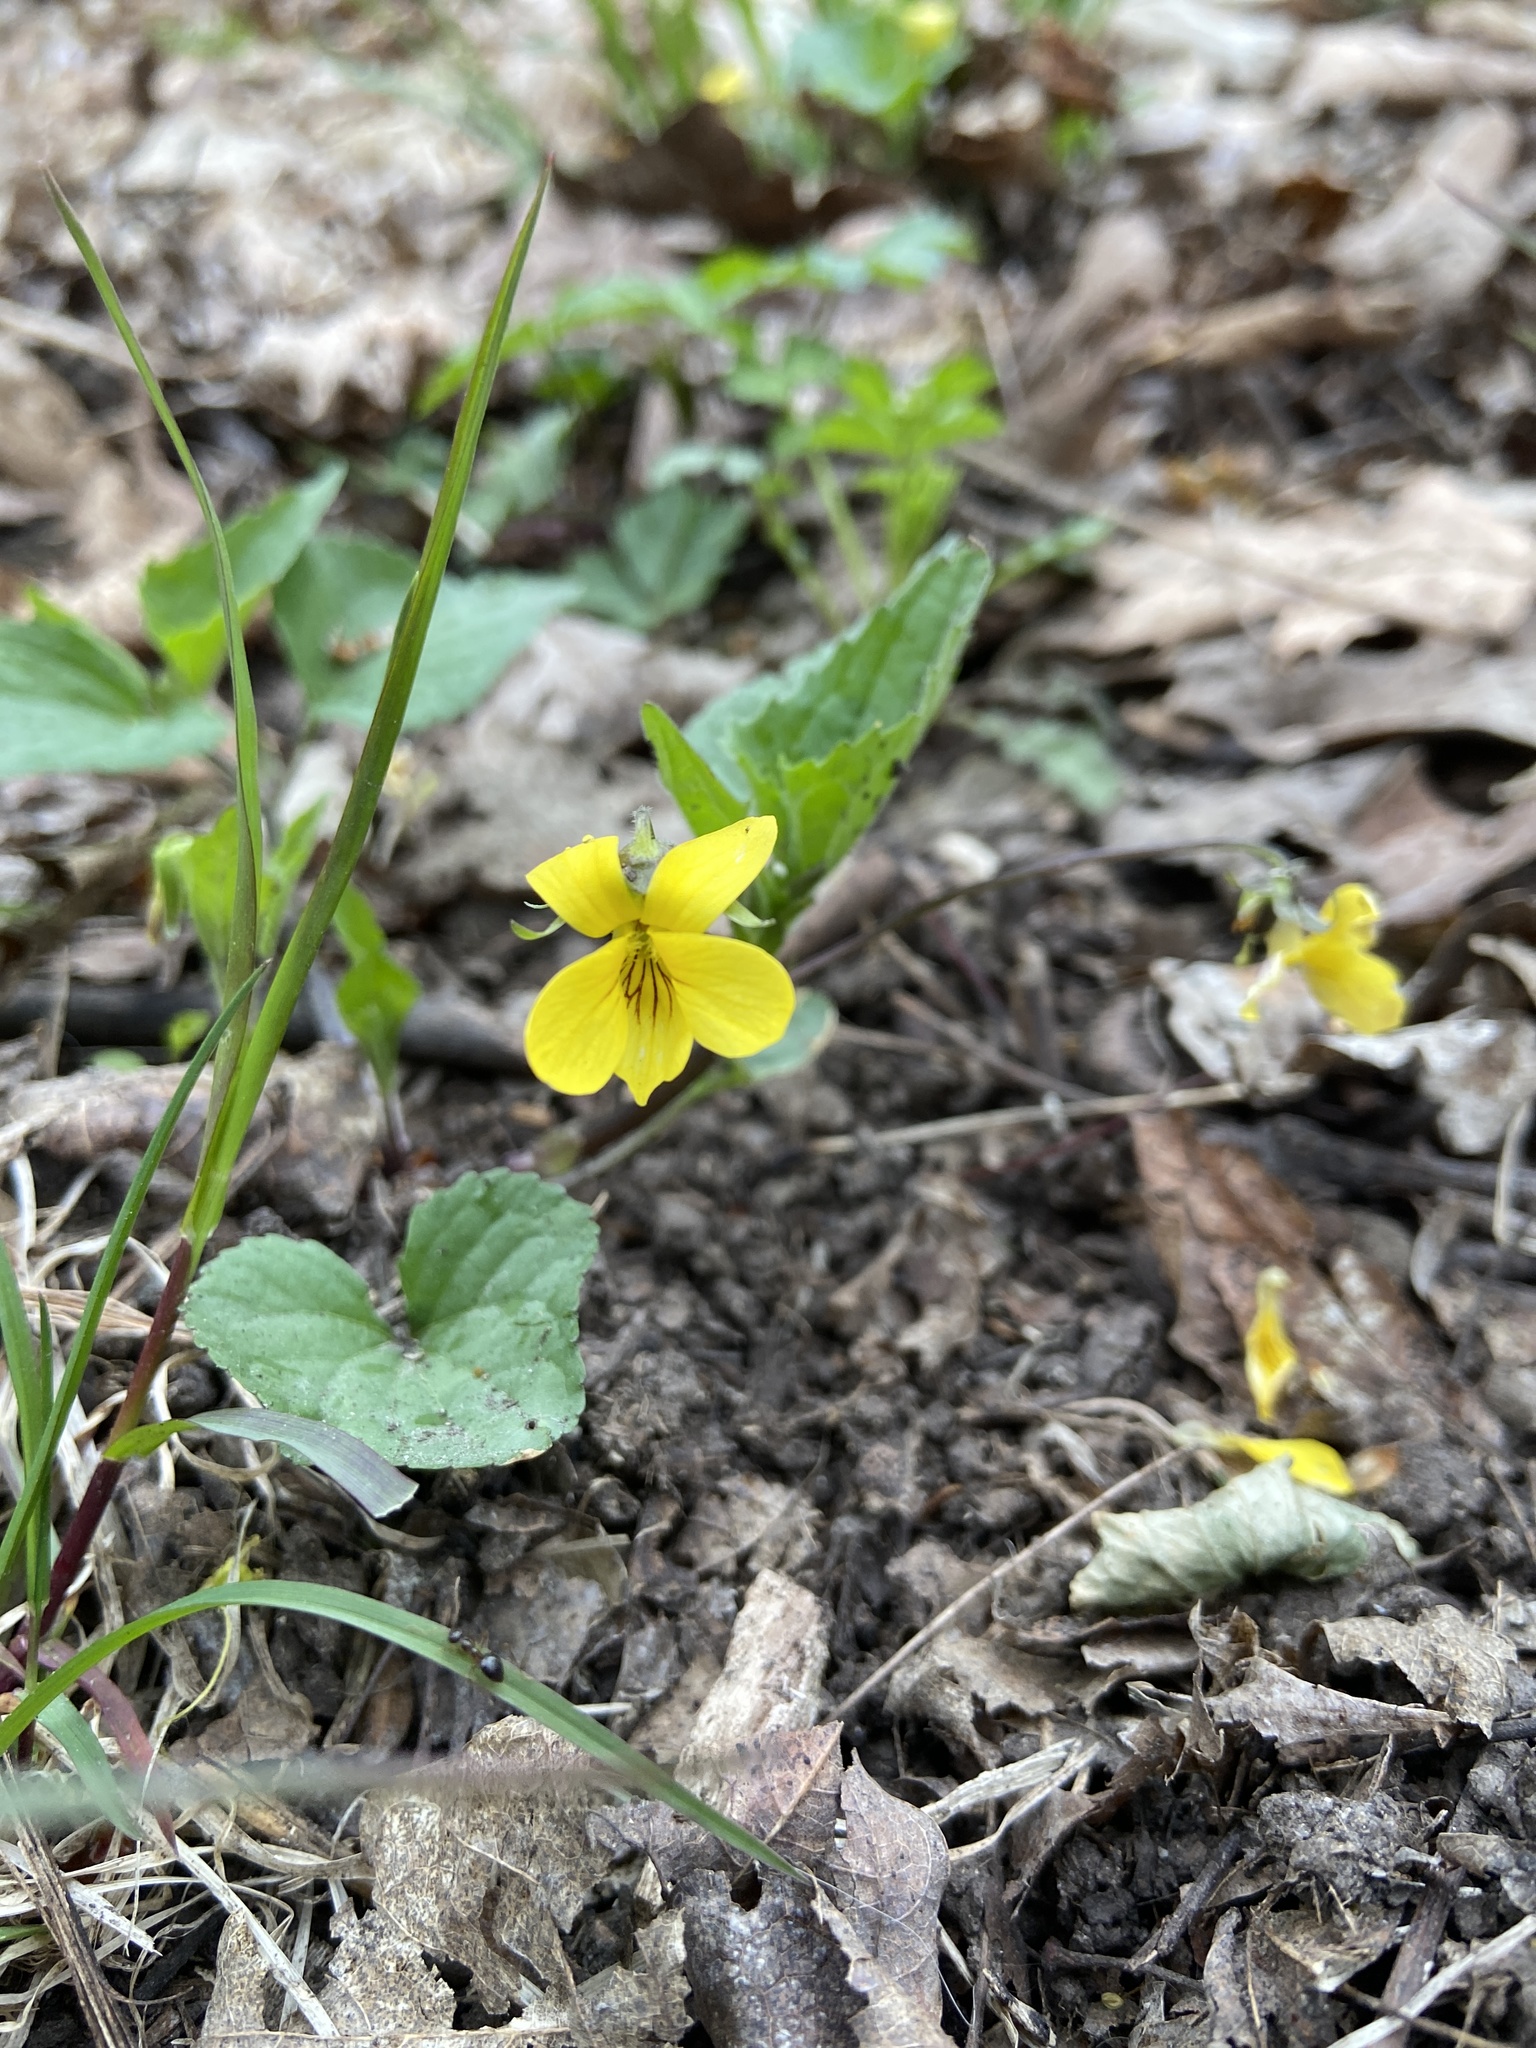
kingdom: Plantae
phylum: Tracheophyta
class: Magnoliopsida
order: Malpighiales
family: Violaceae
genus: Viola
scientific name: Viola eriocarpa
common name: Smooth yellow violet
